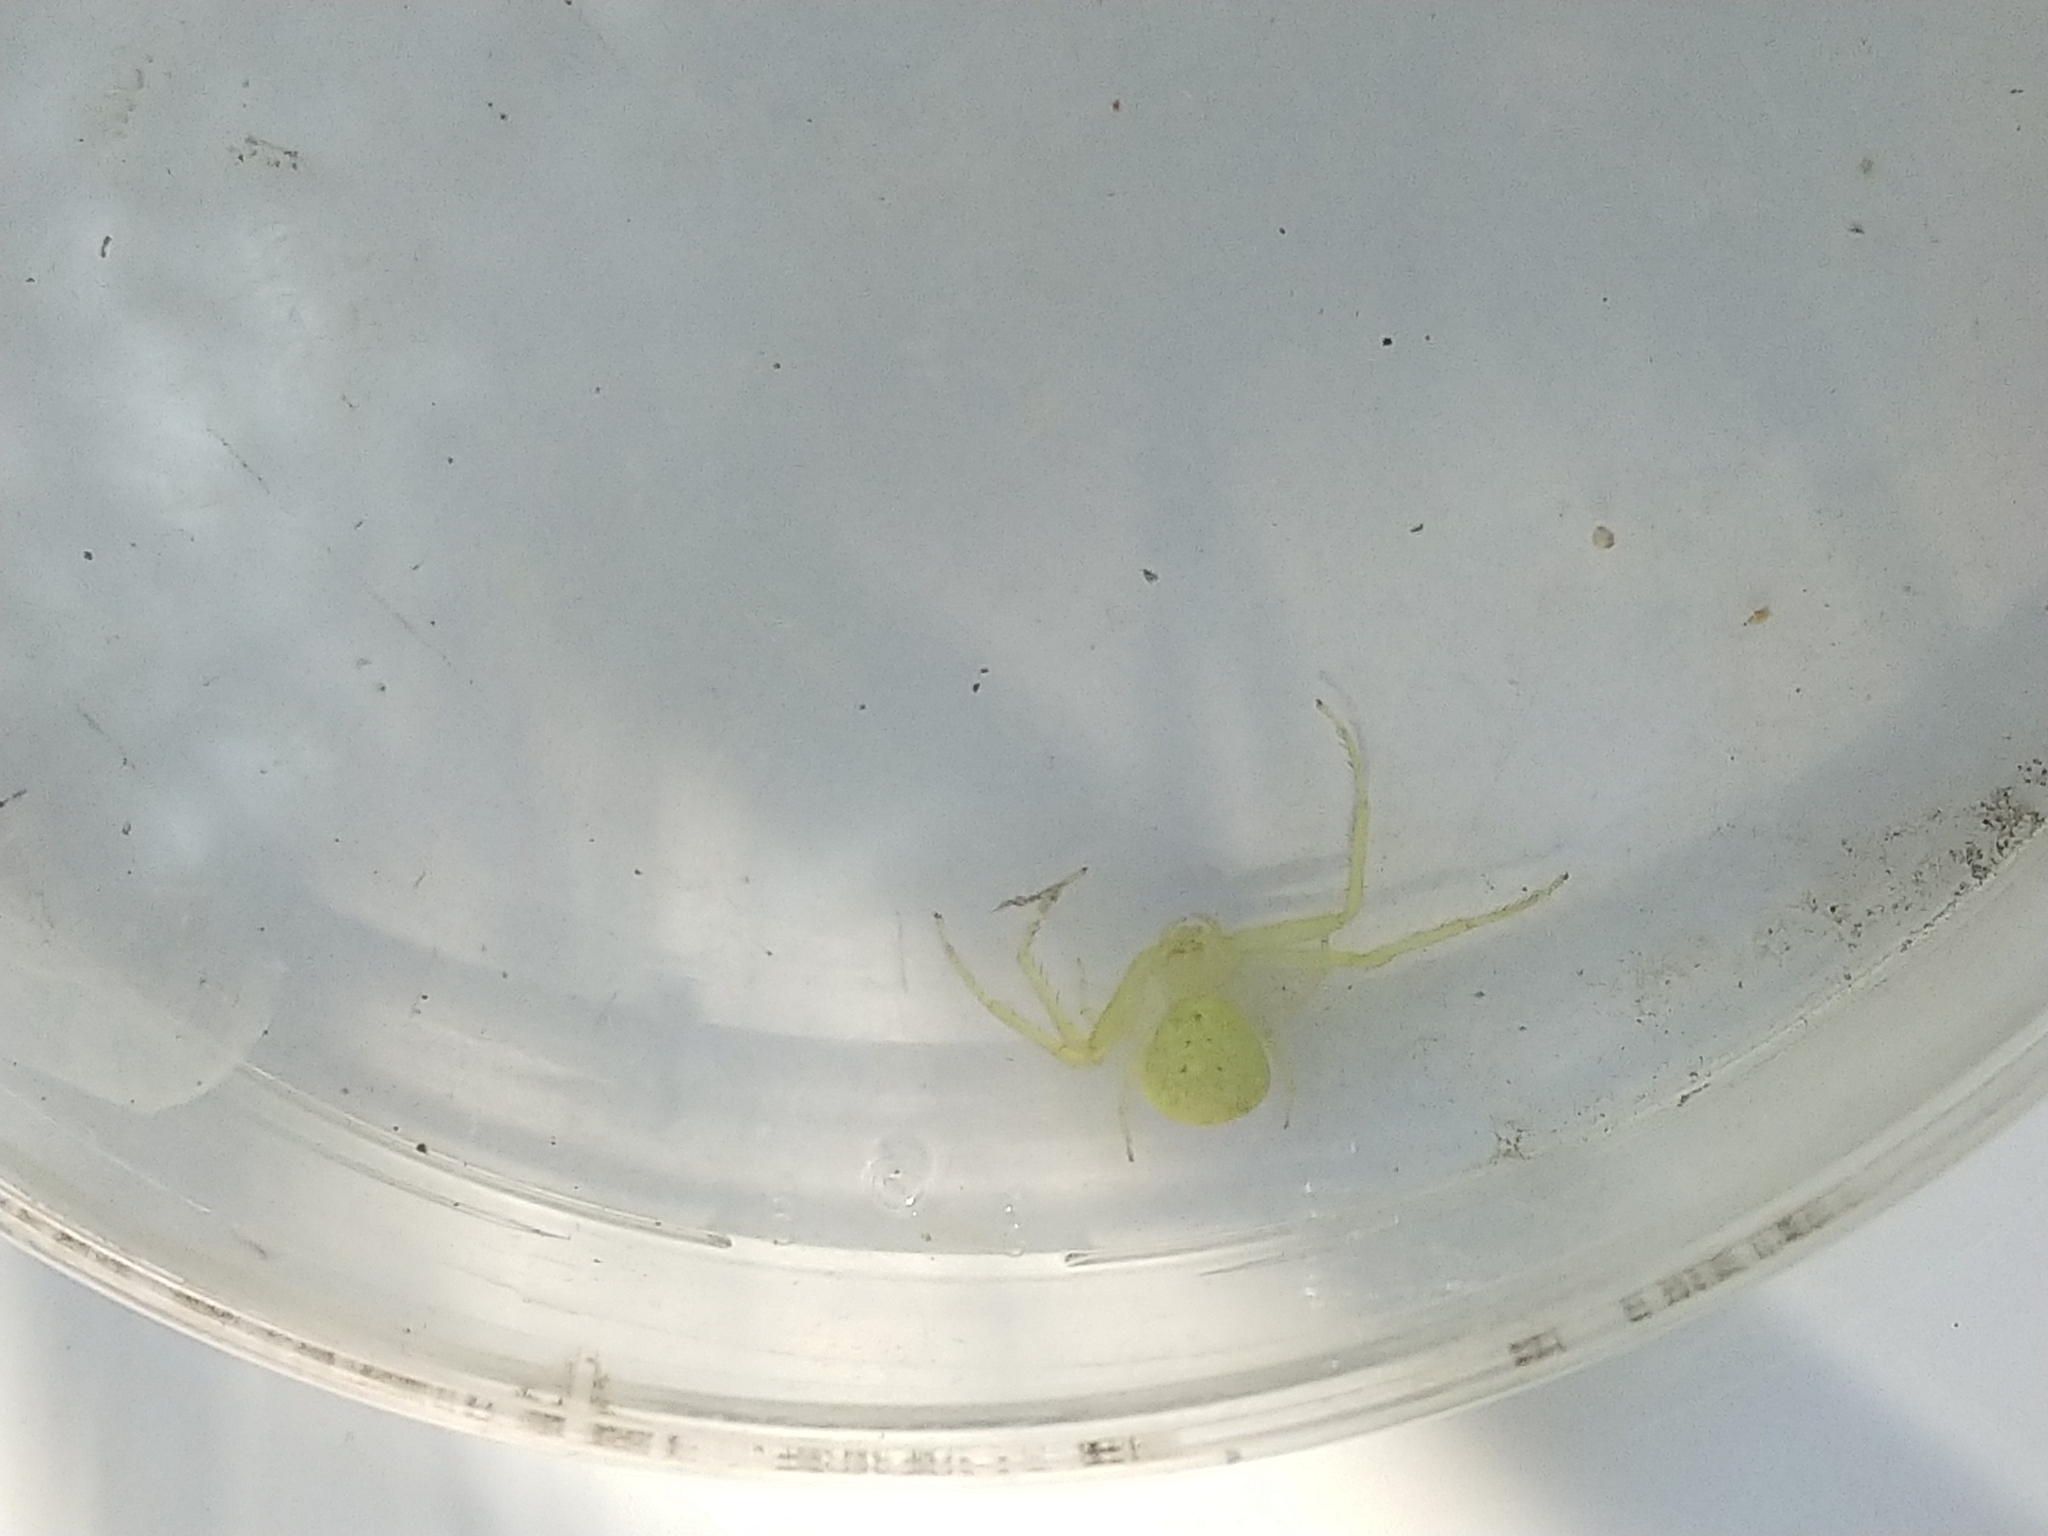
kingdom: Animalia
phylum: Arthropoda
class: Arachnida
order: Araneae
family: Thomisidae
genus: Misumessus
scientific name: Misumessus oblongus
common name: American green crab spider
